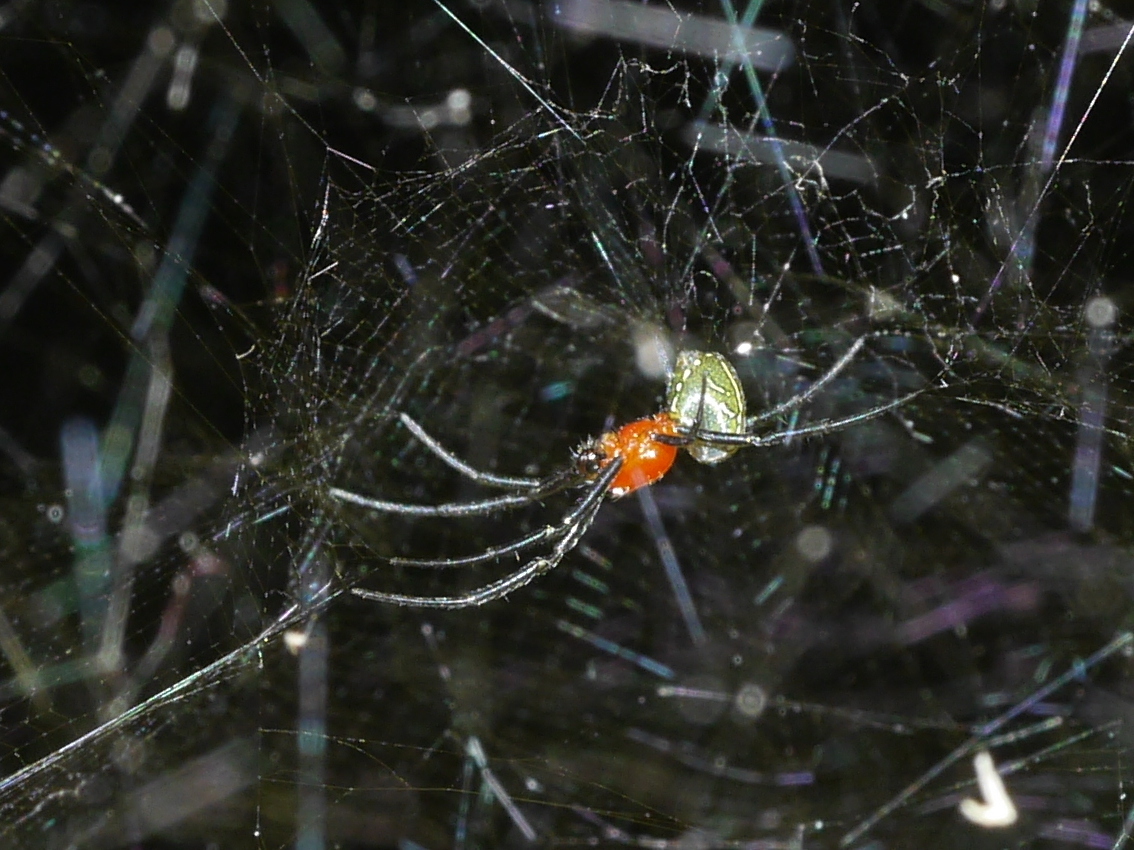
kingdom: Chromista
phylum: Ochrophyta
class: Dictyochophyceae
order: Pedinellales
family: Cyrtophoraceae
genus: Cyrtophora
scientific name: Cyrtophora moluccensis
